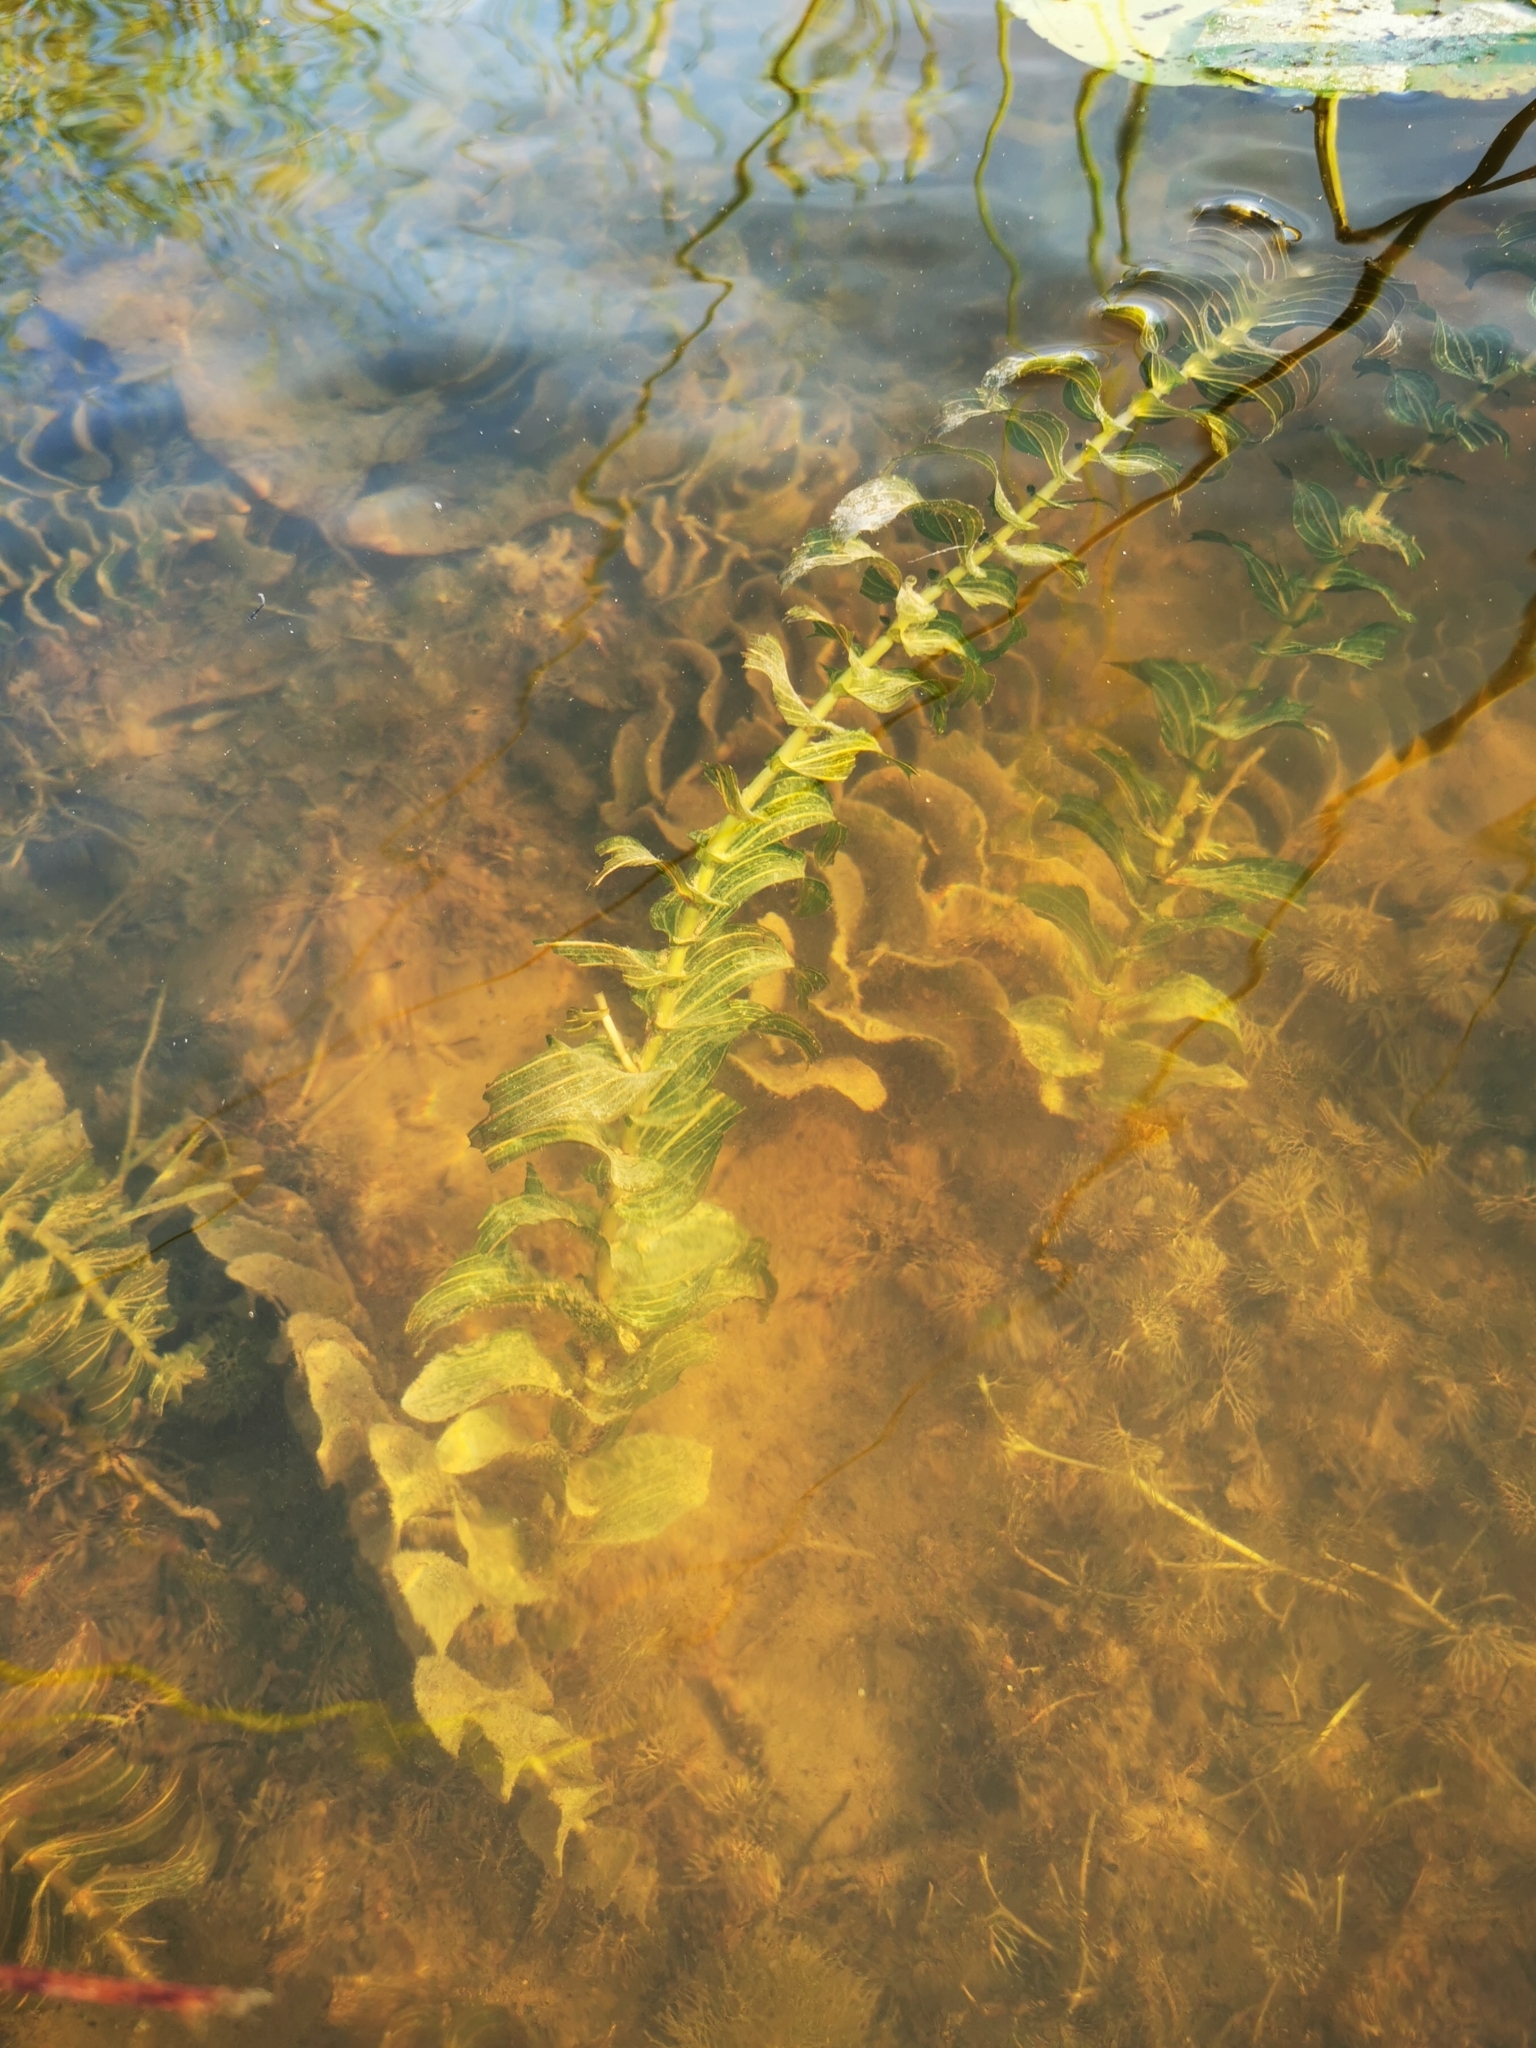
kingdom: Plantae
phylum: Tracheophyta
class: Liliopsida
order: Alismatales
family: Potamogetonaceae
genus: Potamogeton
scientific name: Potamogeton perfoliatus
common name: Perfoliate pondweed
